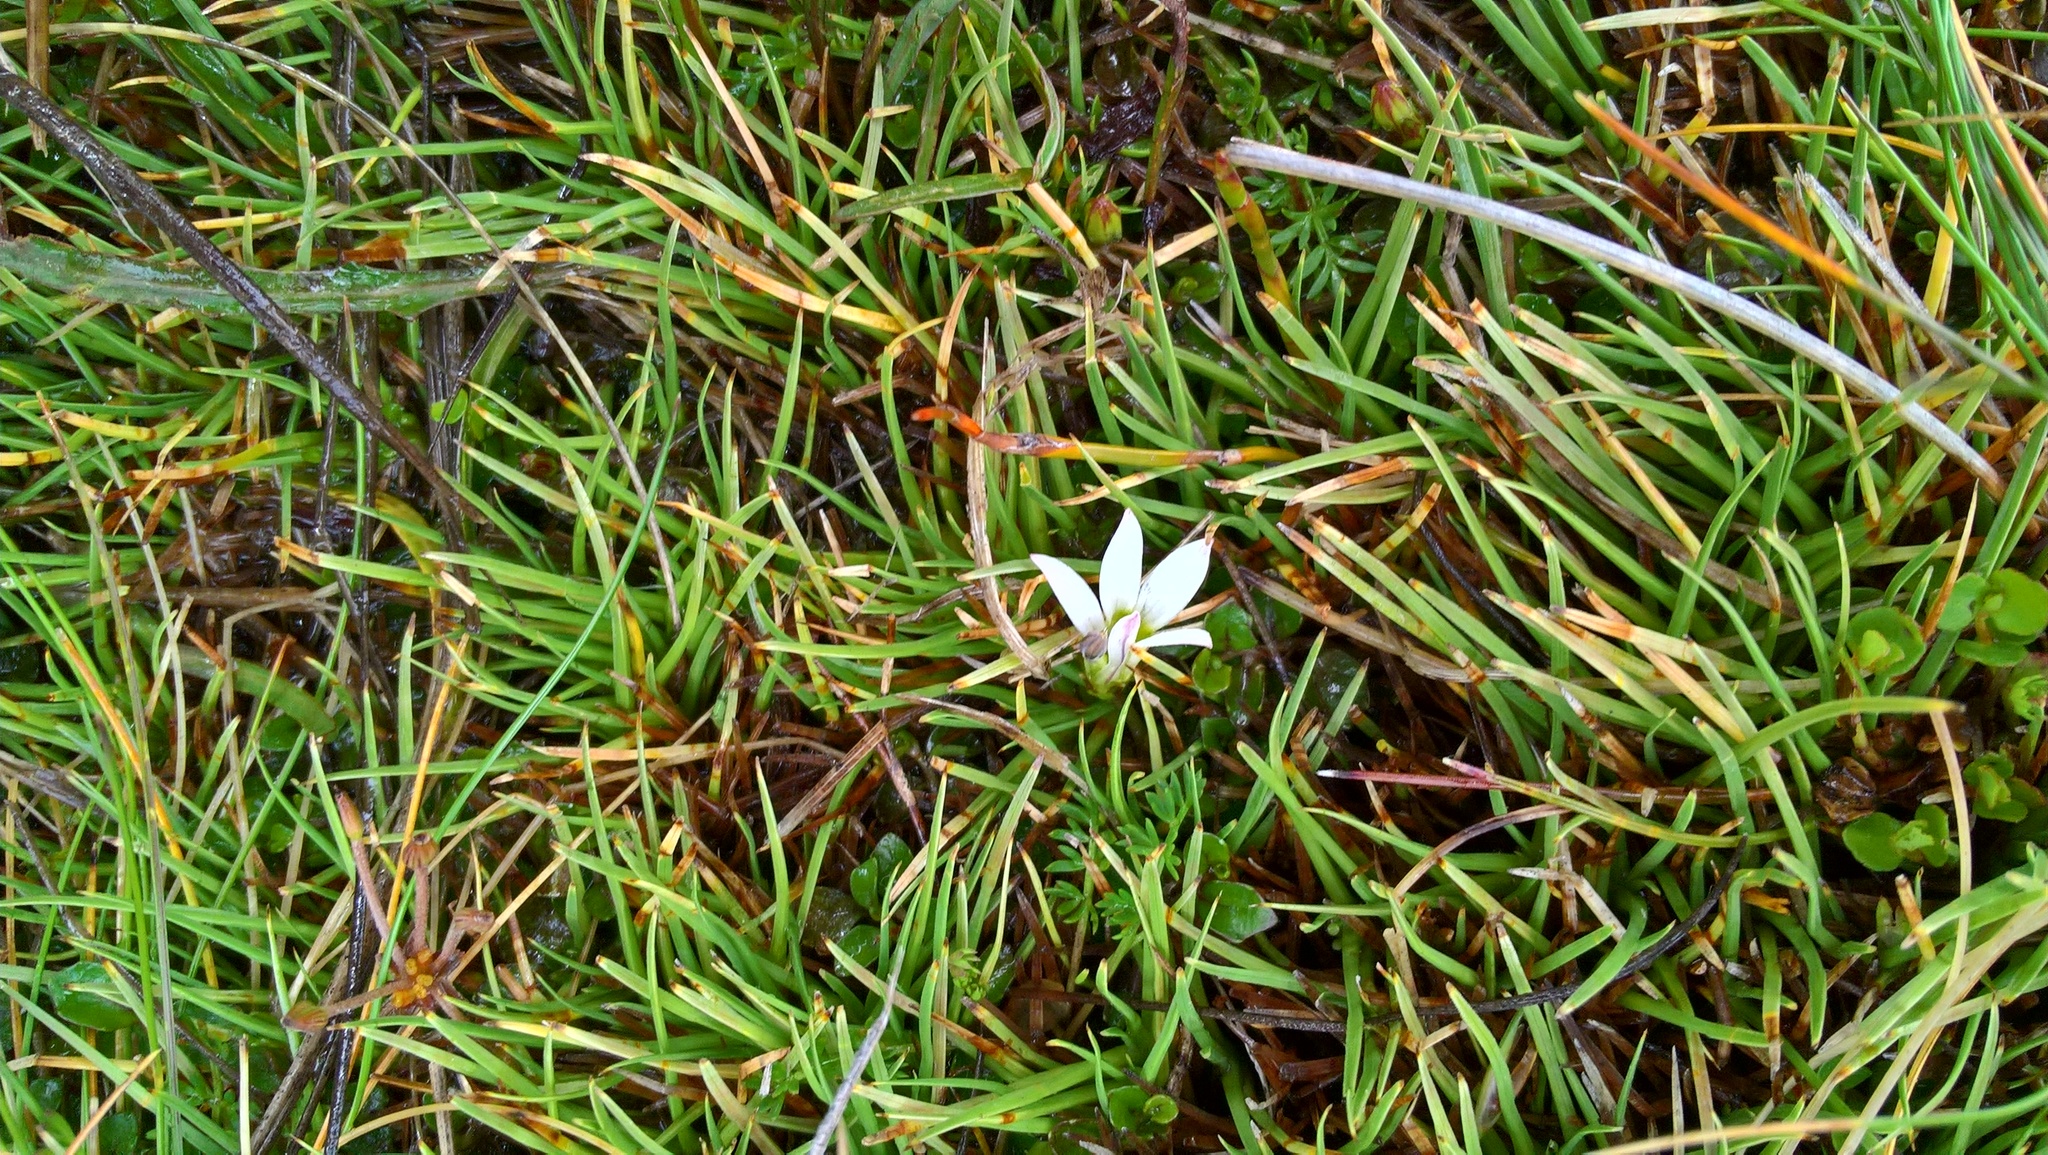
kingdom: Plantae
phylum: Tracheophyta
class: Magnoliopsida
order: Asterales
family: Campanulaceae
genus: Lobelia
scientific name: Lobelia angulata
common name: Lawn lobelia
